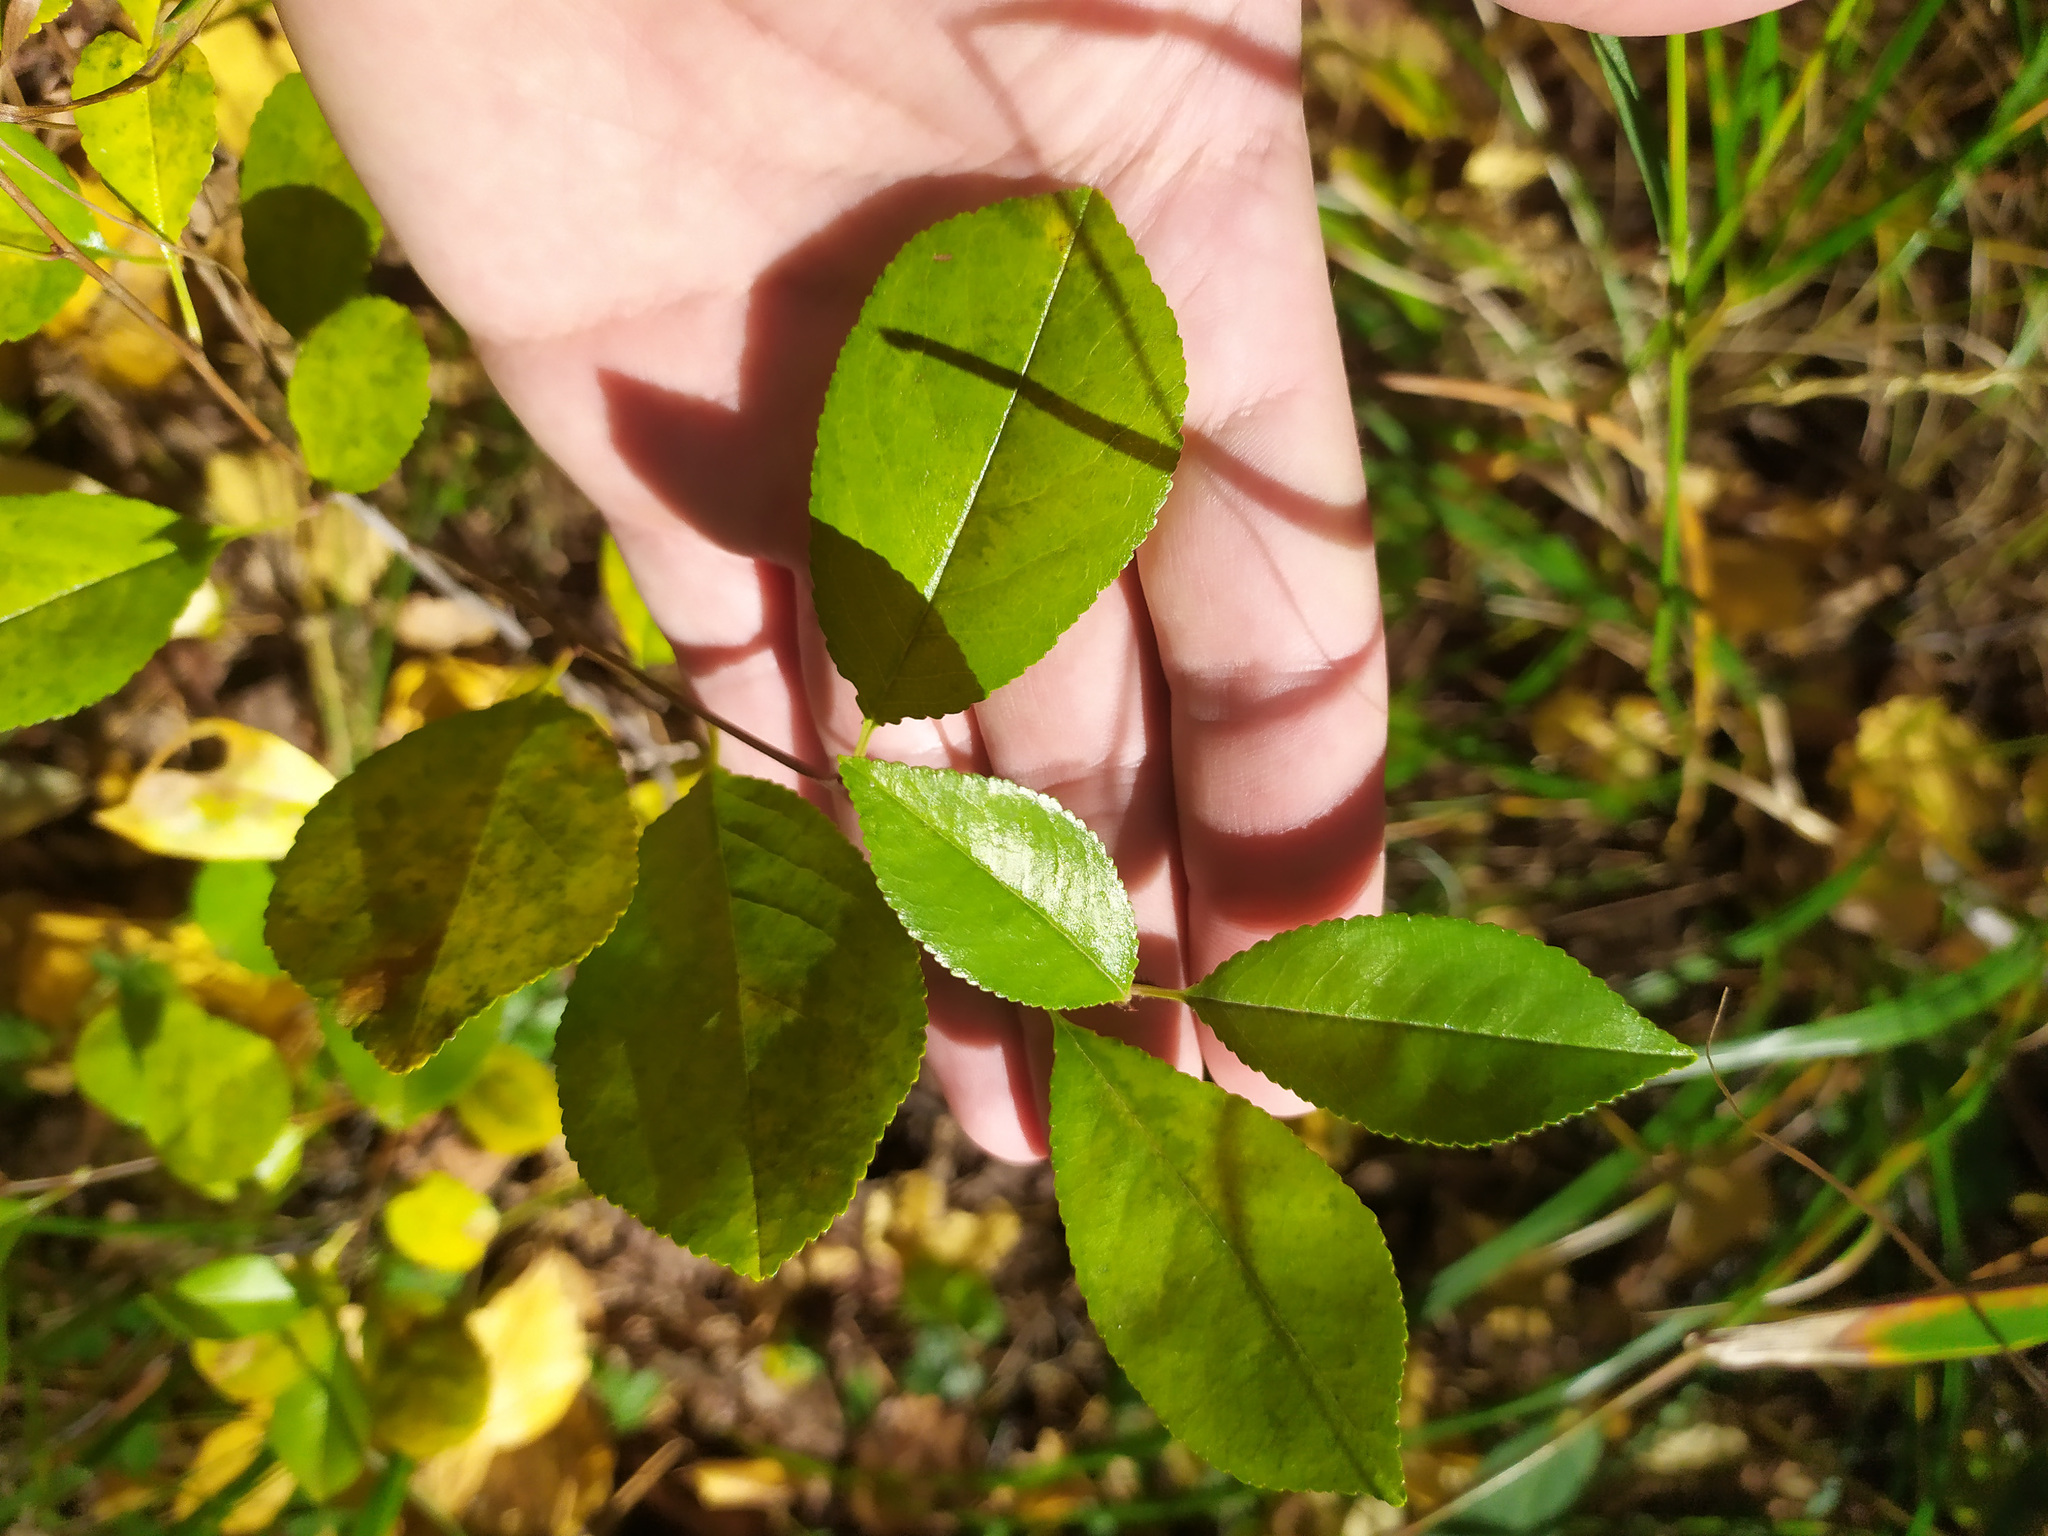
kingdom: Plantae
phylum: Tracheophyta
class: Magnoliopsida
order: Rosales
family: Rosaceae
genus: Prunus
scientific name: Prunus fruticosa
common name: European dwarf cherry
